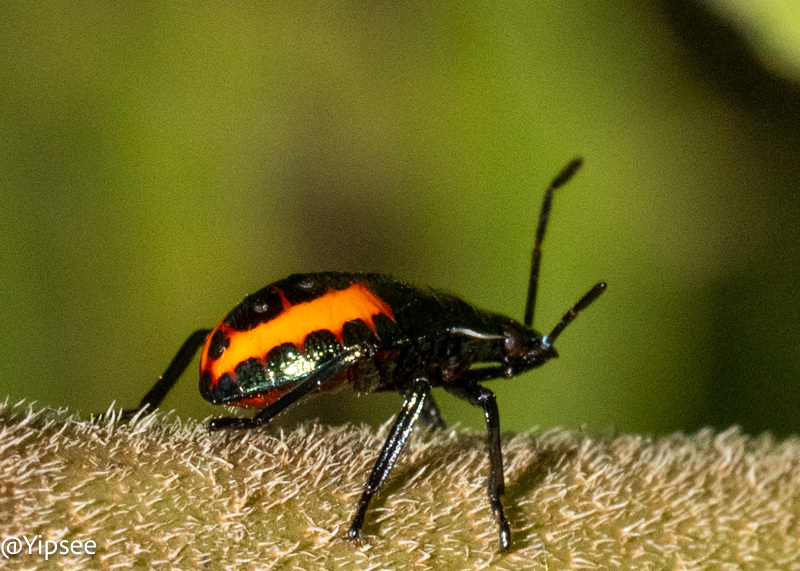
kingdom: Animalia
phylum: Arthropoda
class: Insecta
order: Hemiptera
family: Pentatomidae
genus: Eocanthecoma
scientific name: Eocanthecoma furcellata
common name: Stink bug
